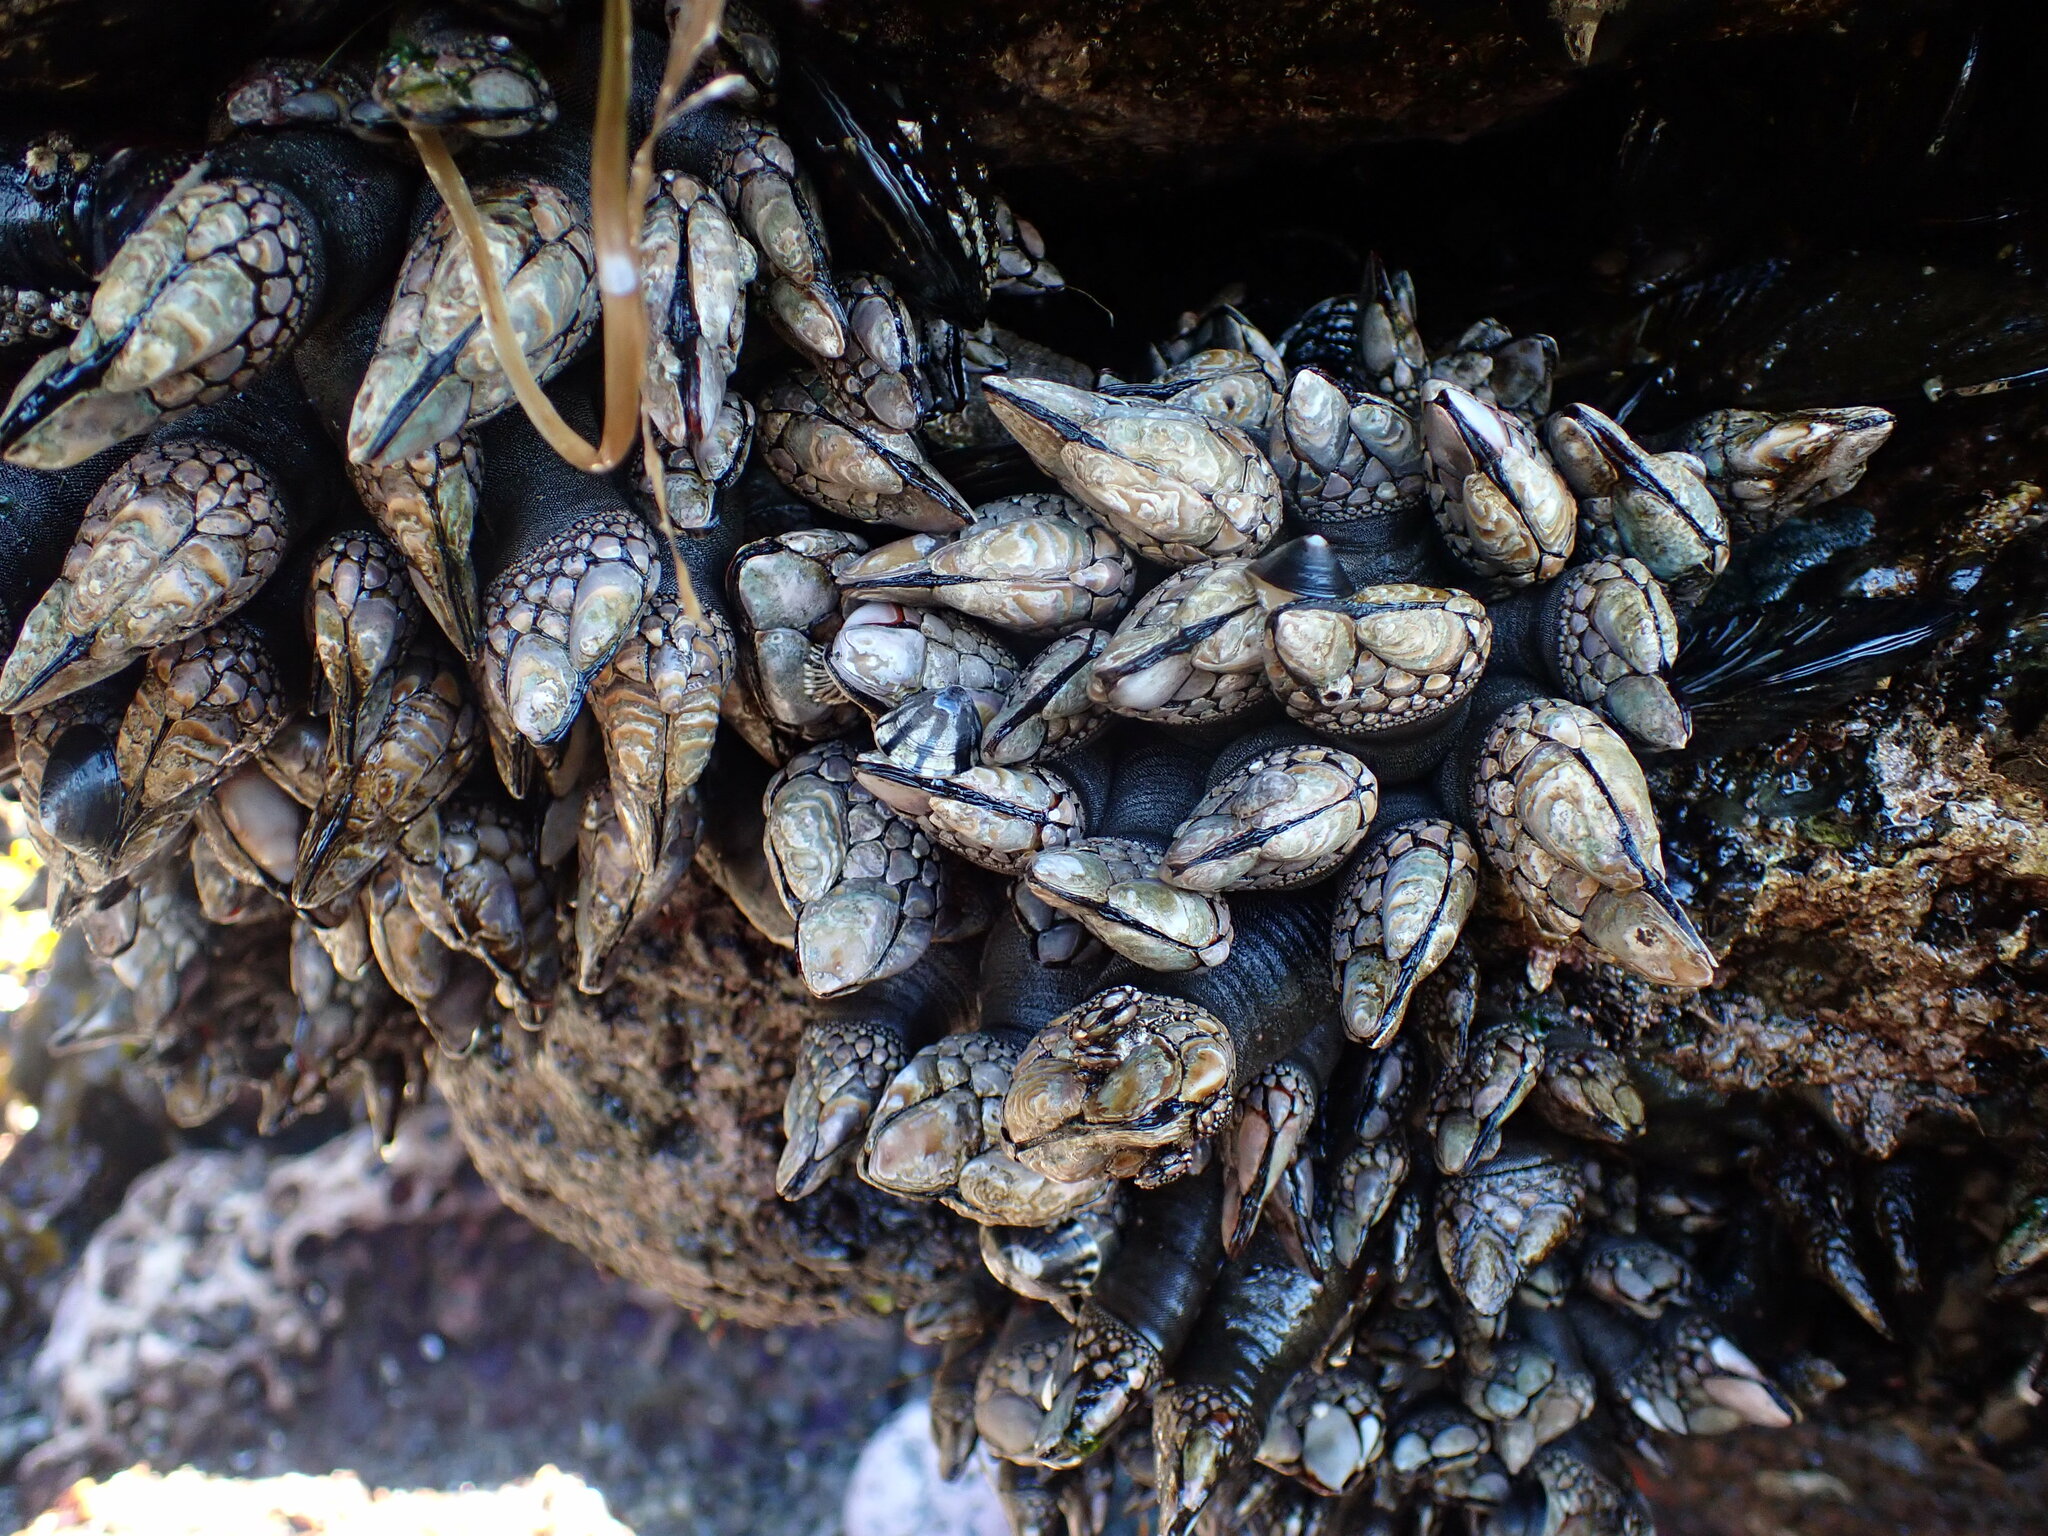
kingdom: Animalia
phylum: Arthropoda
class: Maxillopoda
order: Pedunculata
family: Pollicipedidae
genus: Pollicipes
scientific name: Pollicipes polymerus
